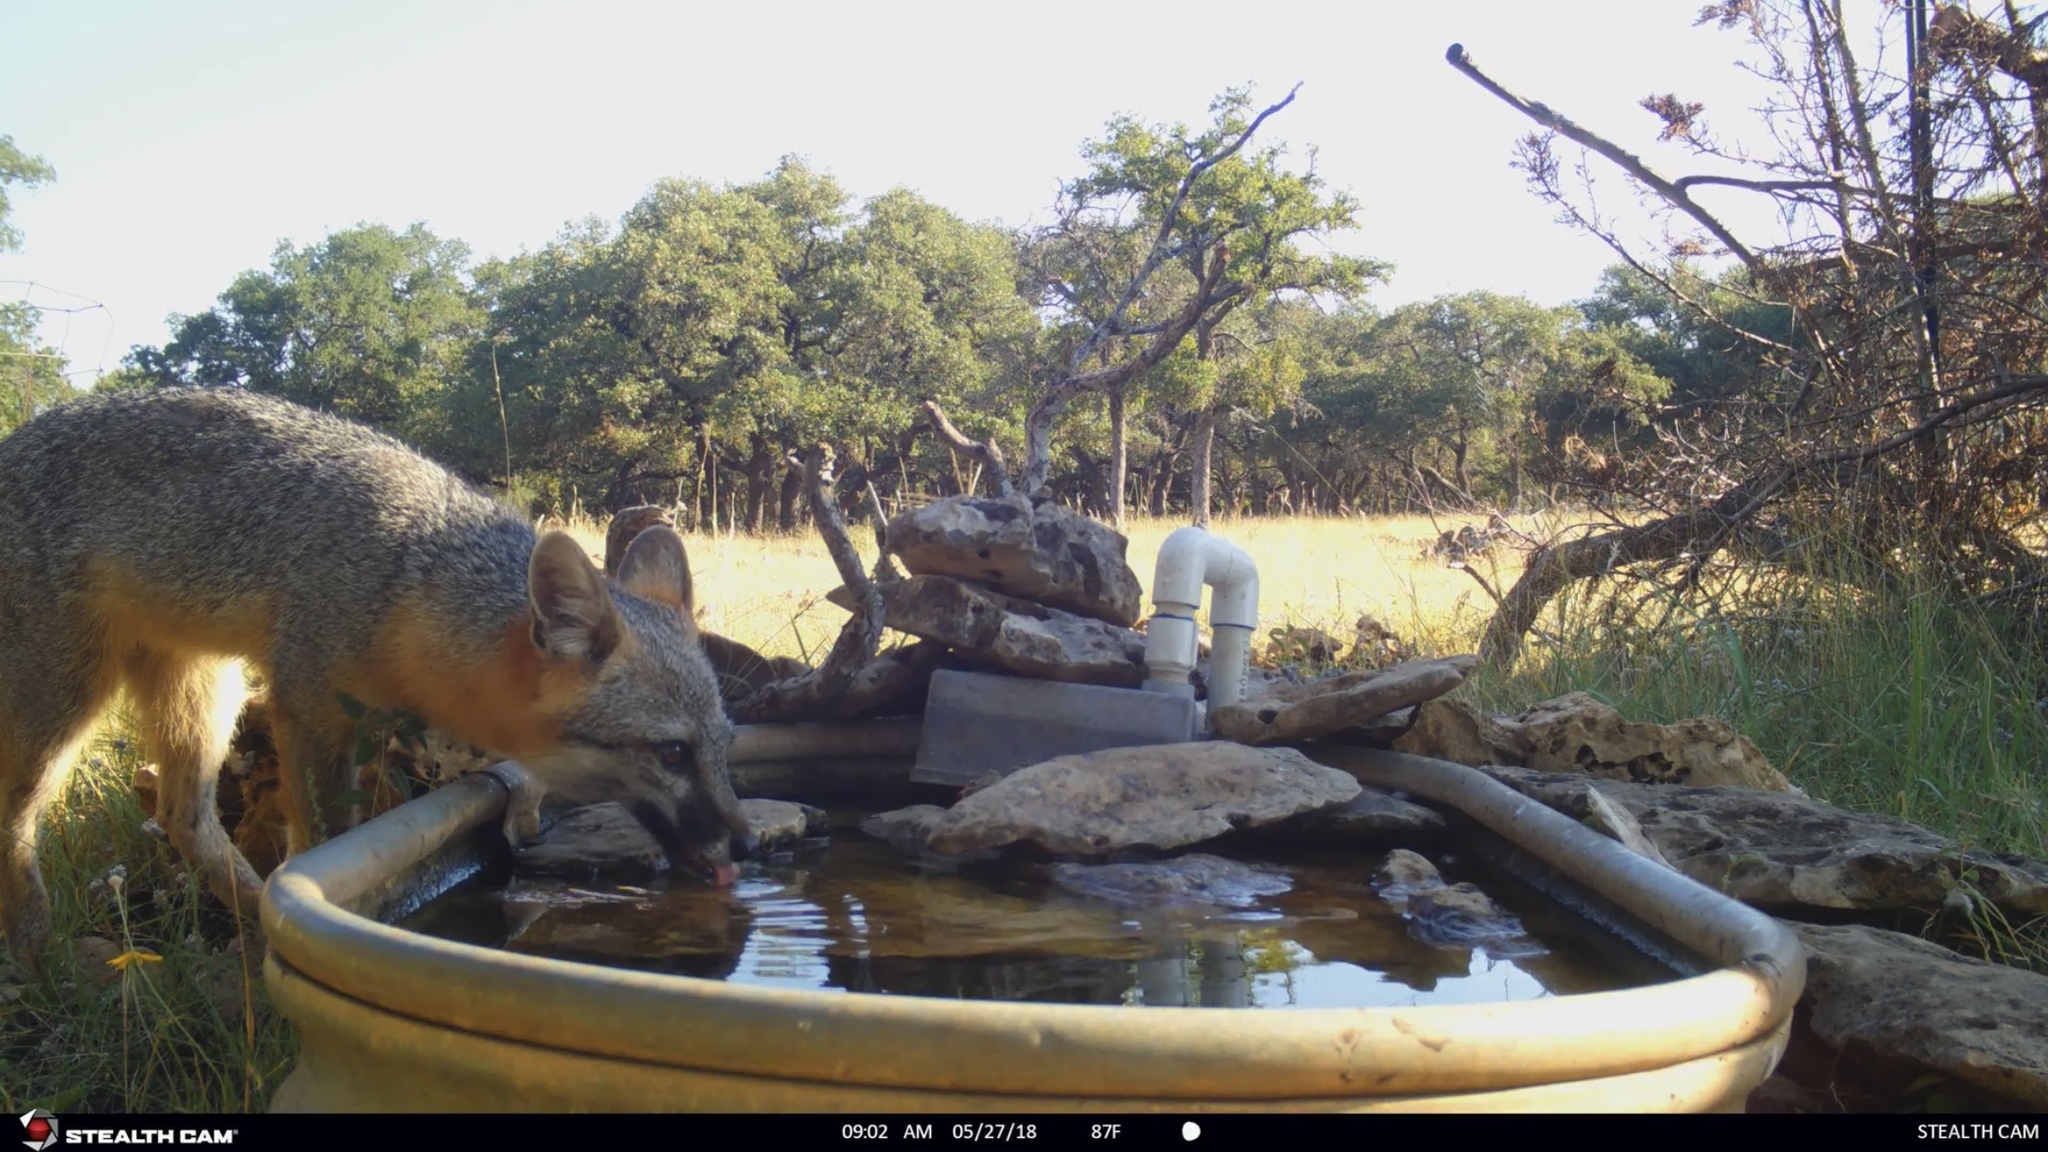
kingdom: Animalia
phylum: Chordata
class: Mammalia
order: Carnivora
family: Canidae
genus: Urocyon
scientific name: Urocyon cinereoargenteus
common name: Gray fox
